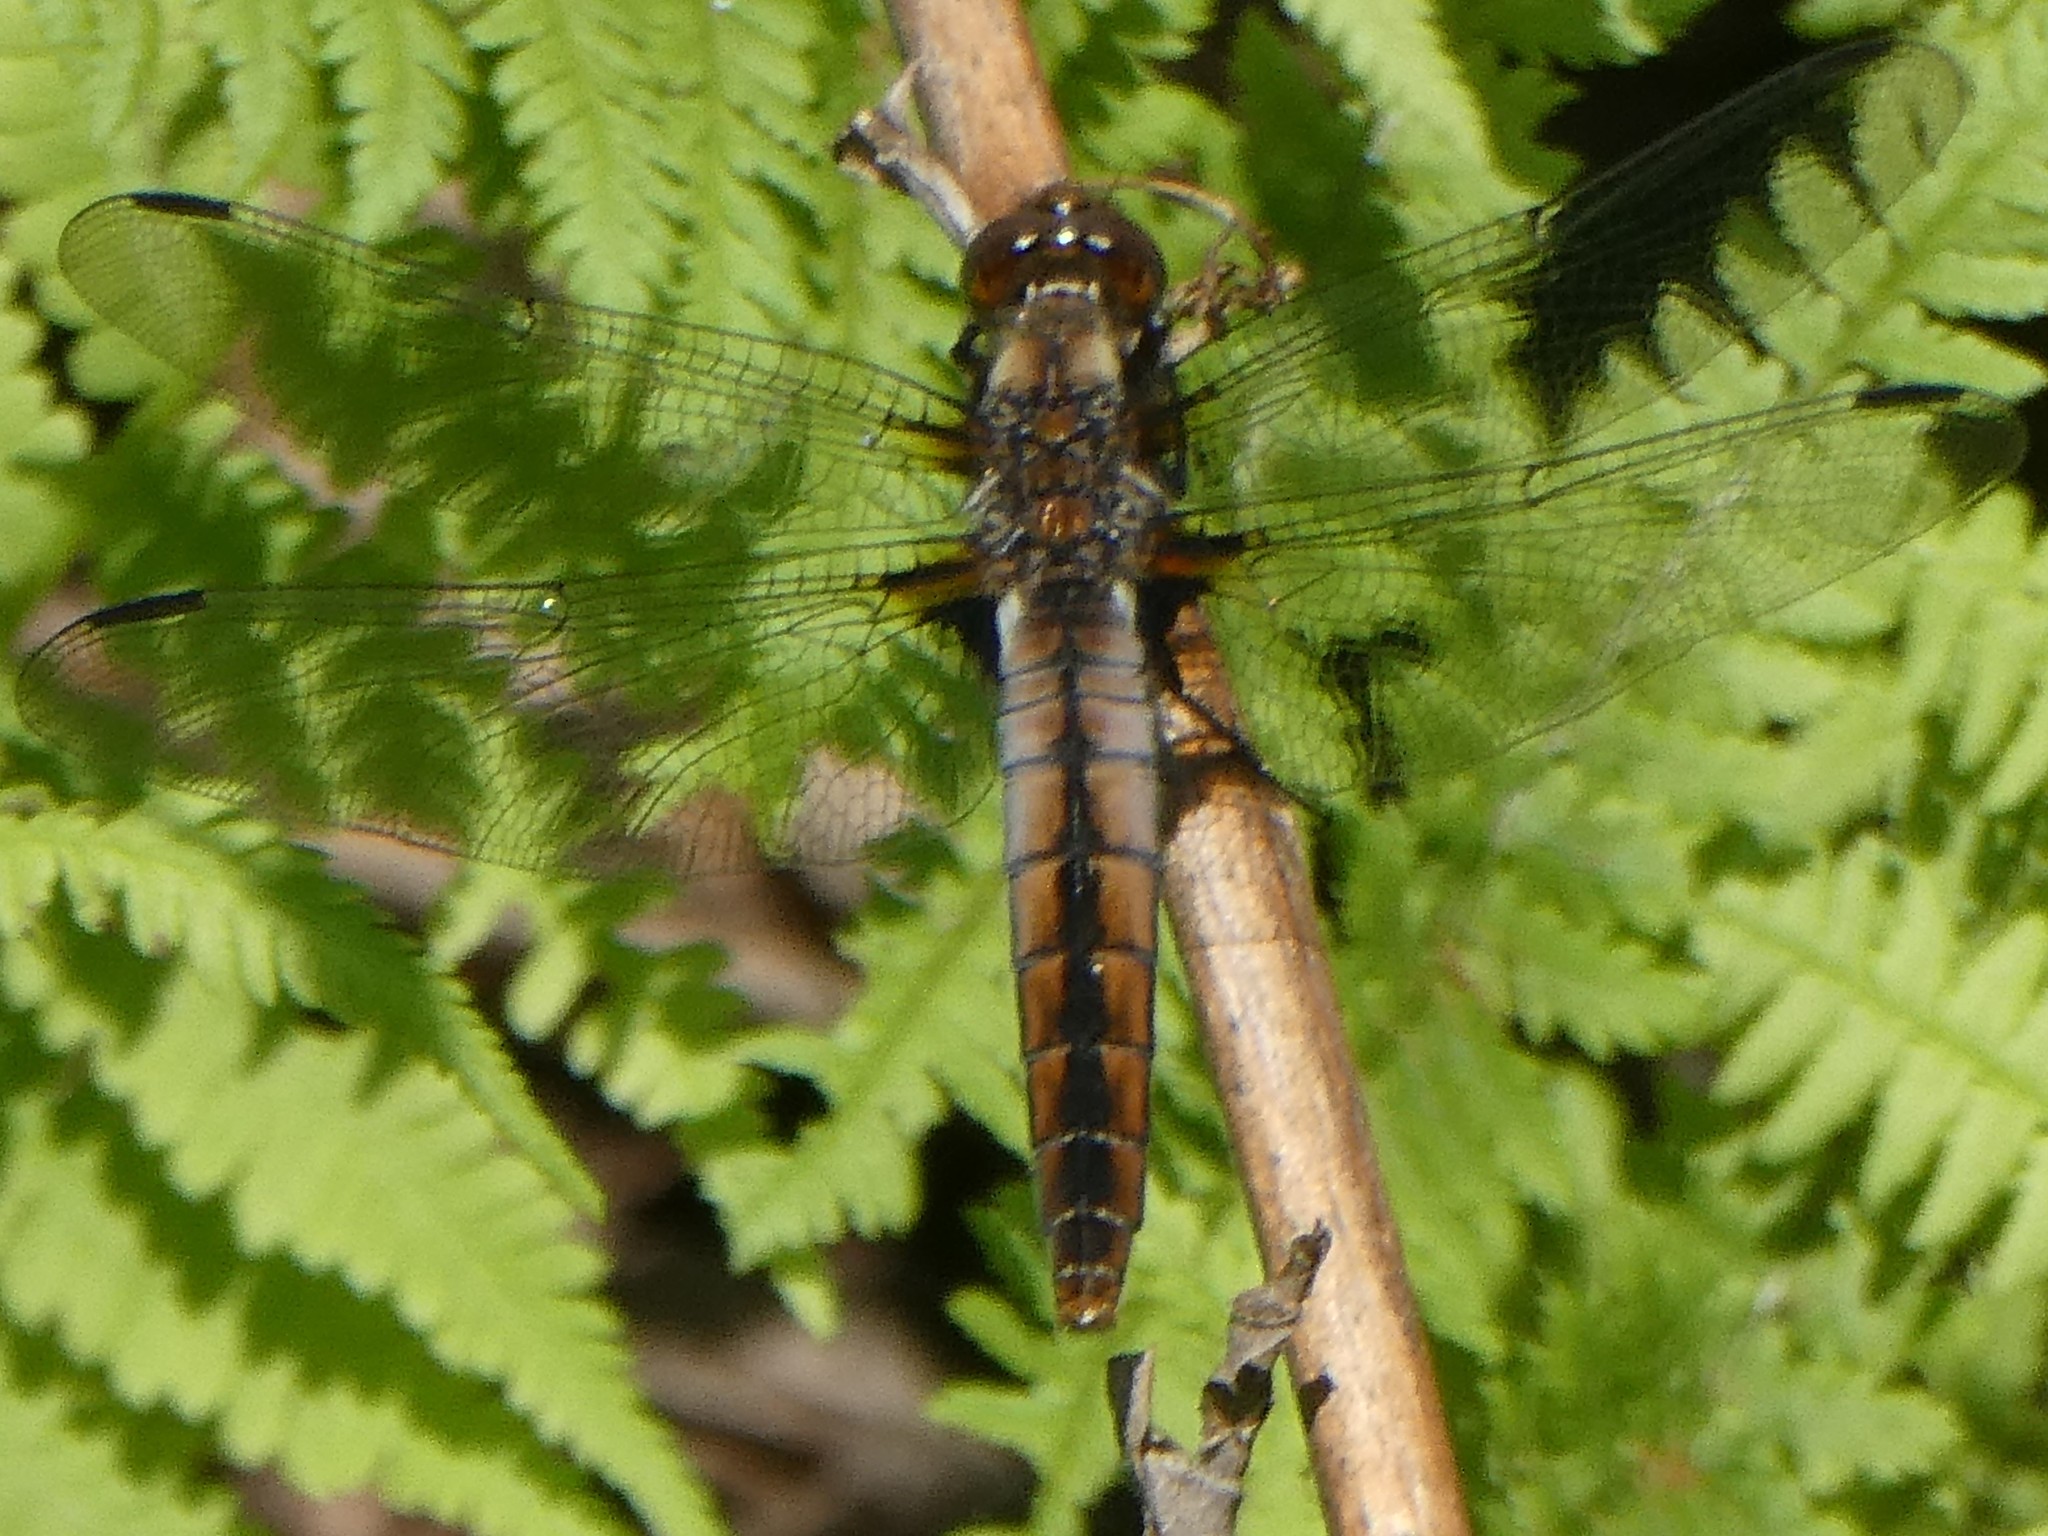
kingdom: Animalia
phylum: Arthropoda
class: Insecta
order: Odonata
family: Libellulidae
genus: Ladona
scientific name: Ladona julia
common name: Chalk-fronted corporal
